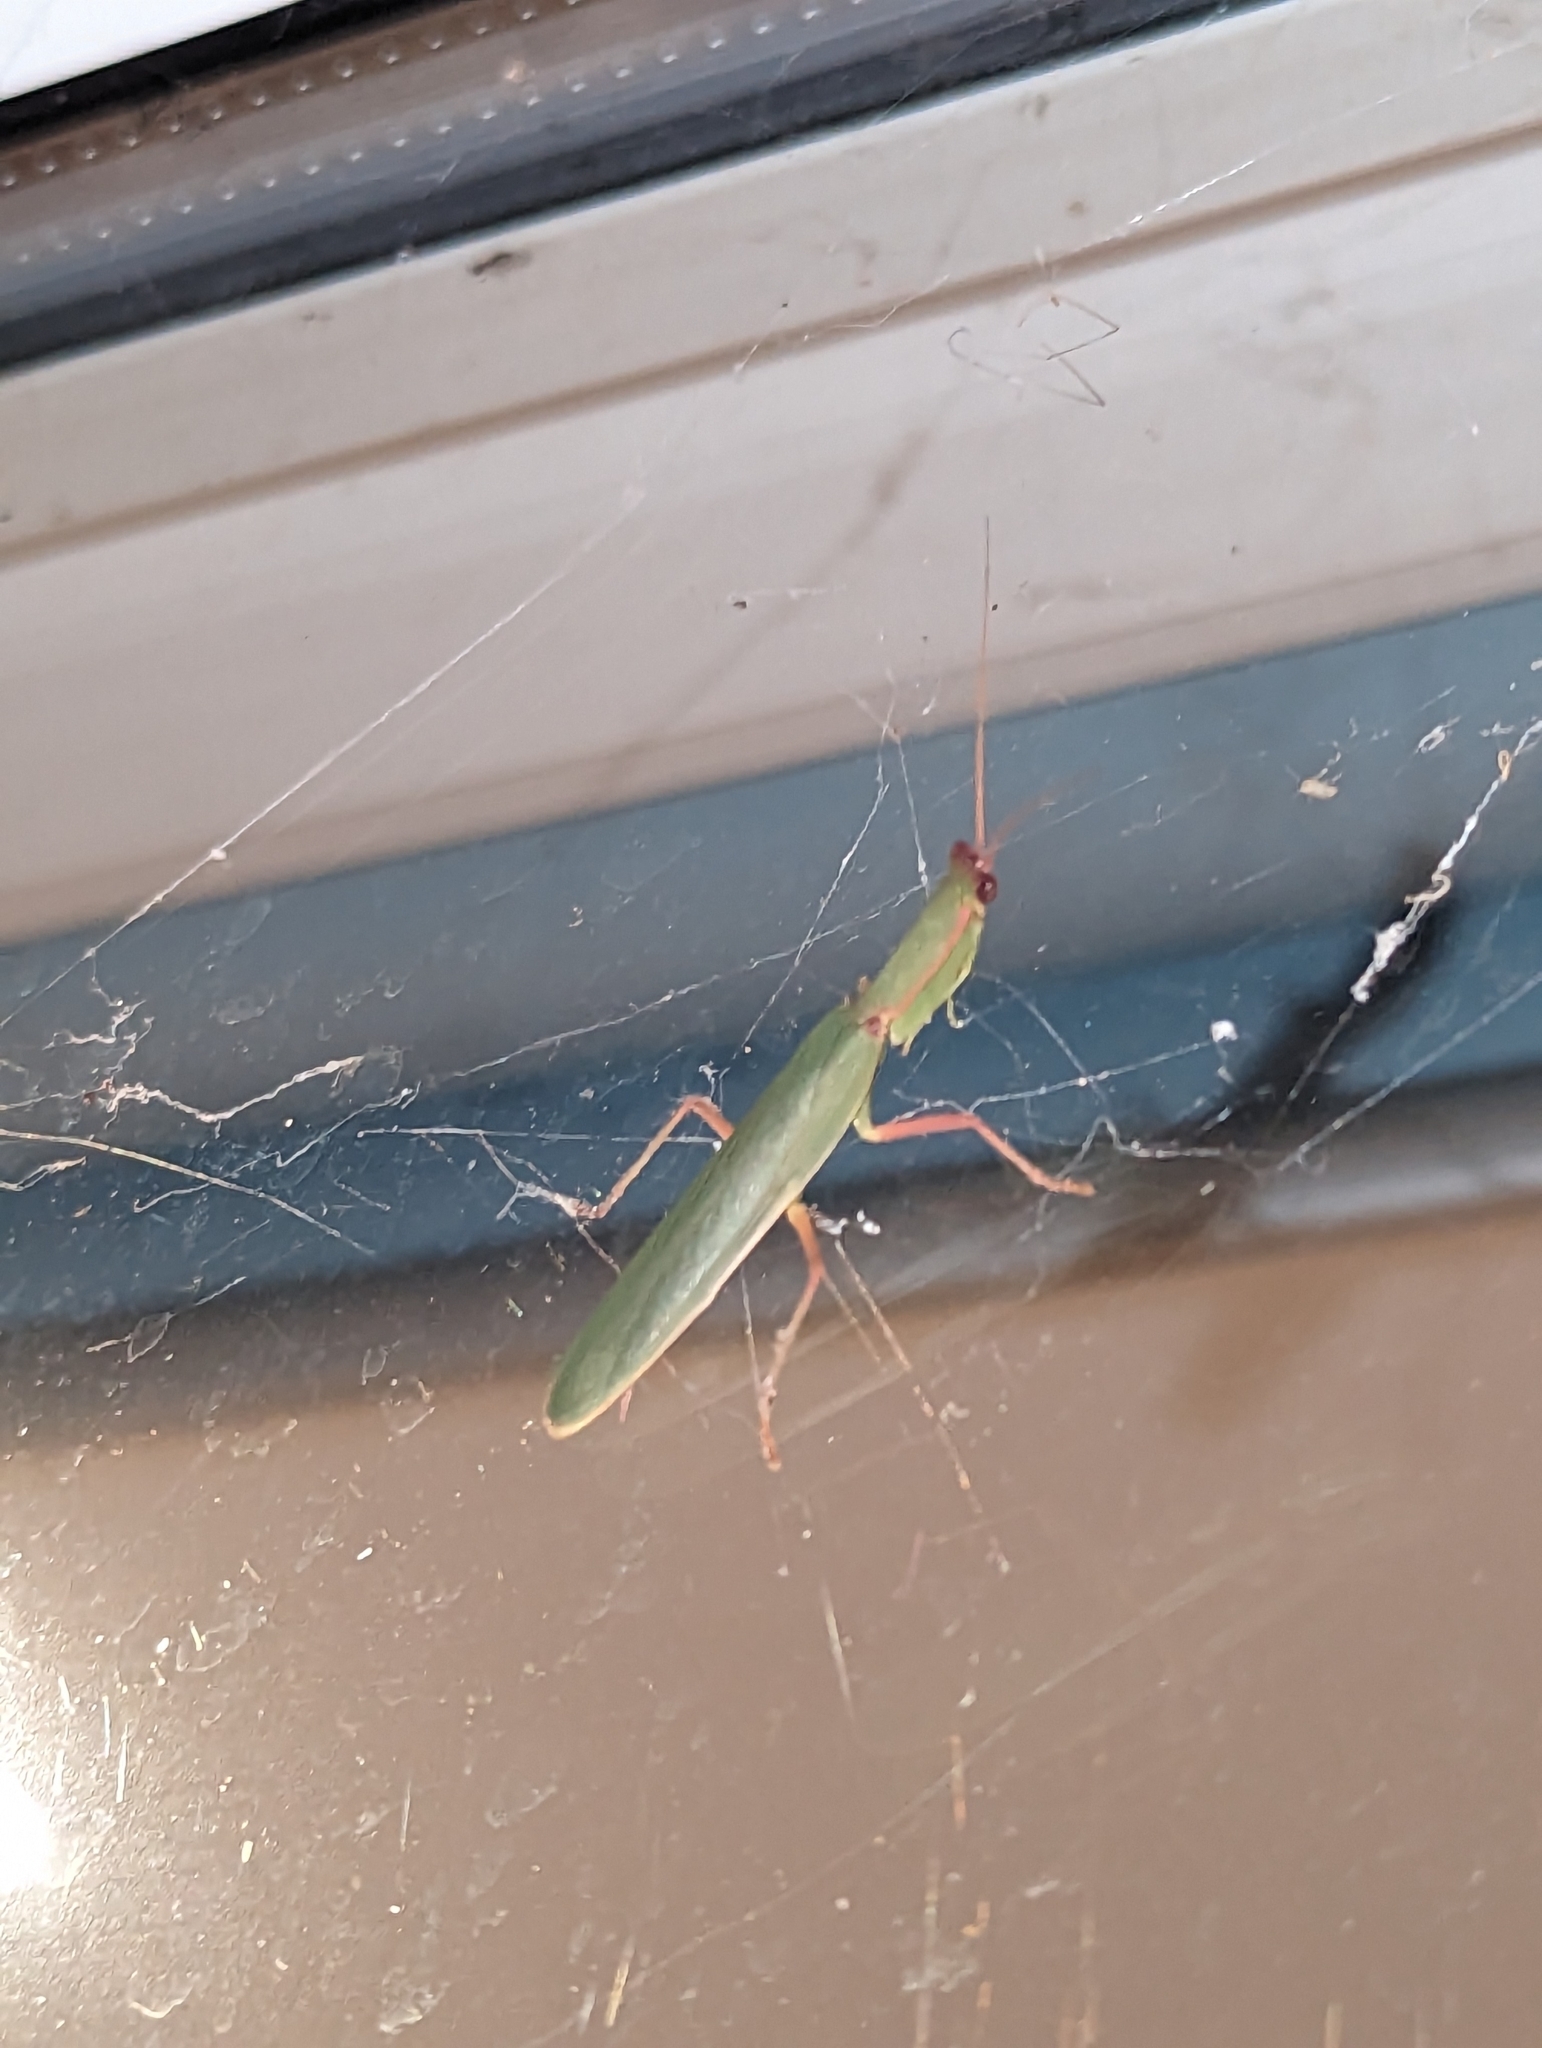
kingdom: Animalia
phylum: Arthropoda
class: Insecta
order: Mantodea
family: Mantidae
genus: Orthodera
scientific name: Orthodera ministralis
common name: Mantis
